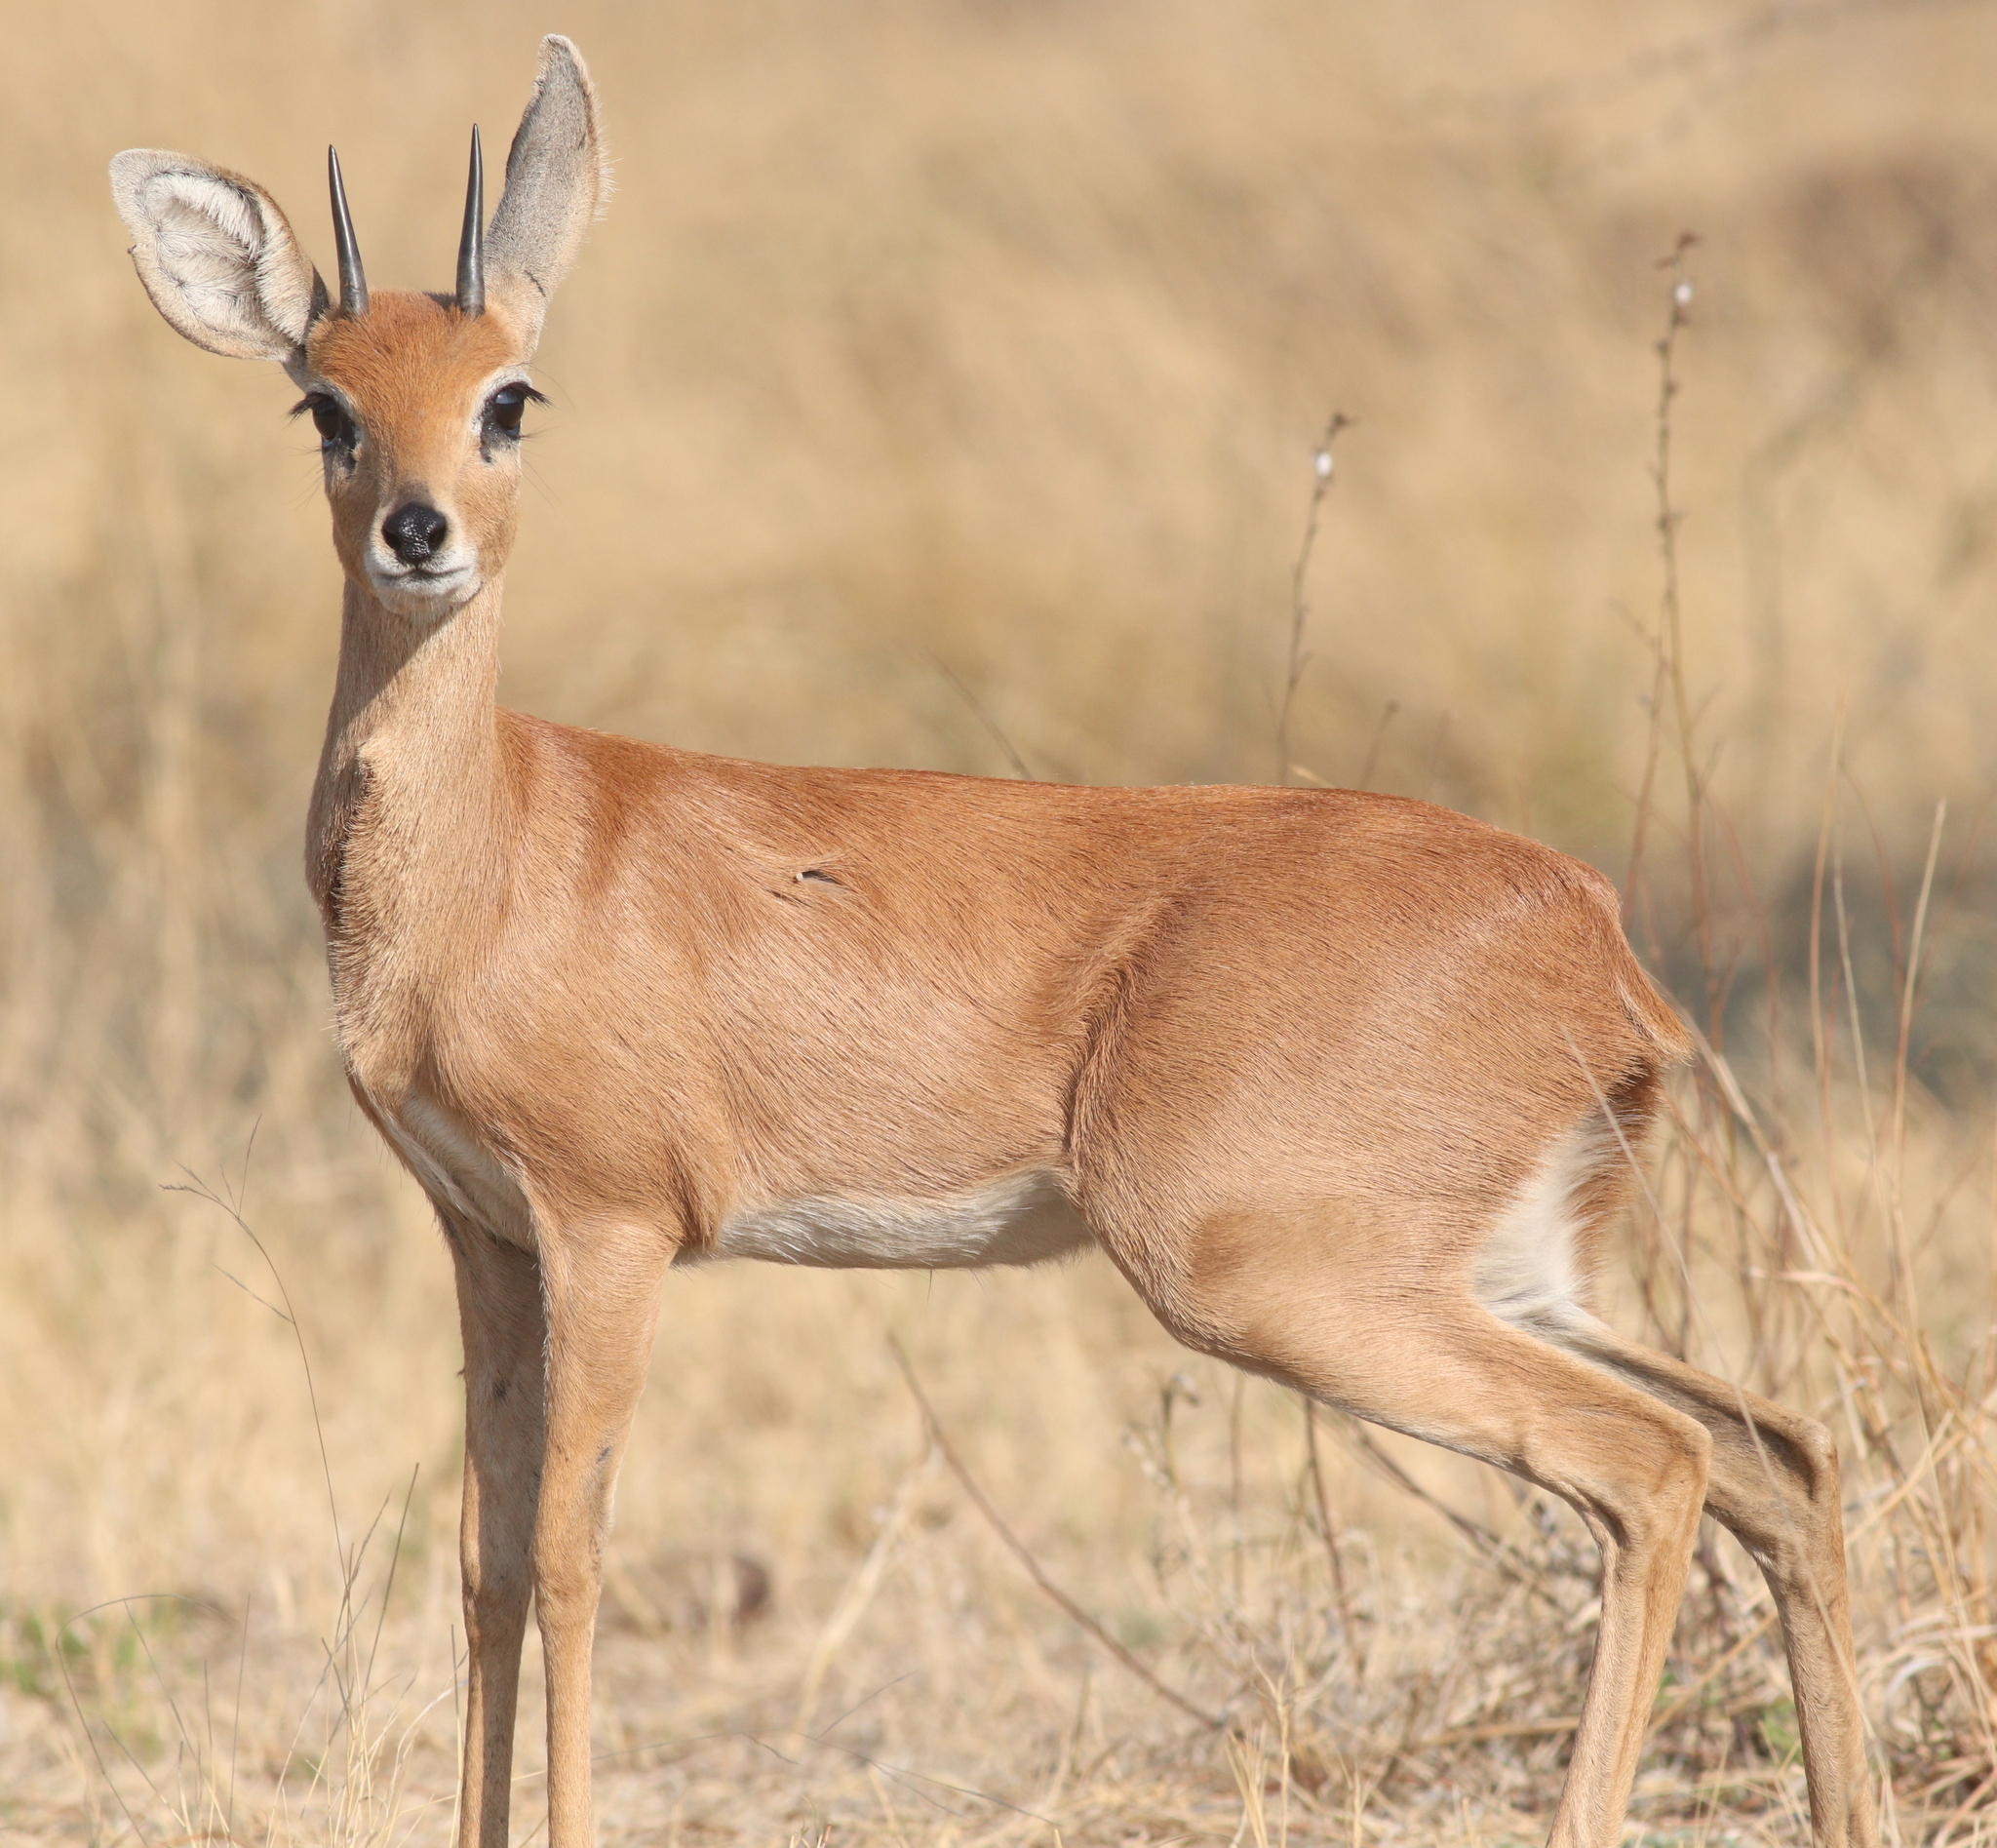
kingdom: Animalia
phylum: Chordata
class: Mammalia
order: Artiodactyla
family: Bovidae
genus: Raphicerus
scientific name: Raphicerus campestris
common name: Steenbok
